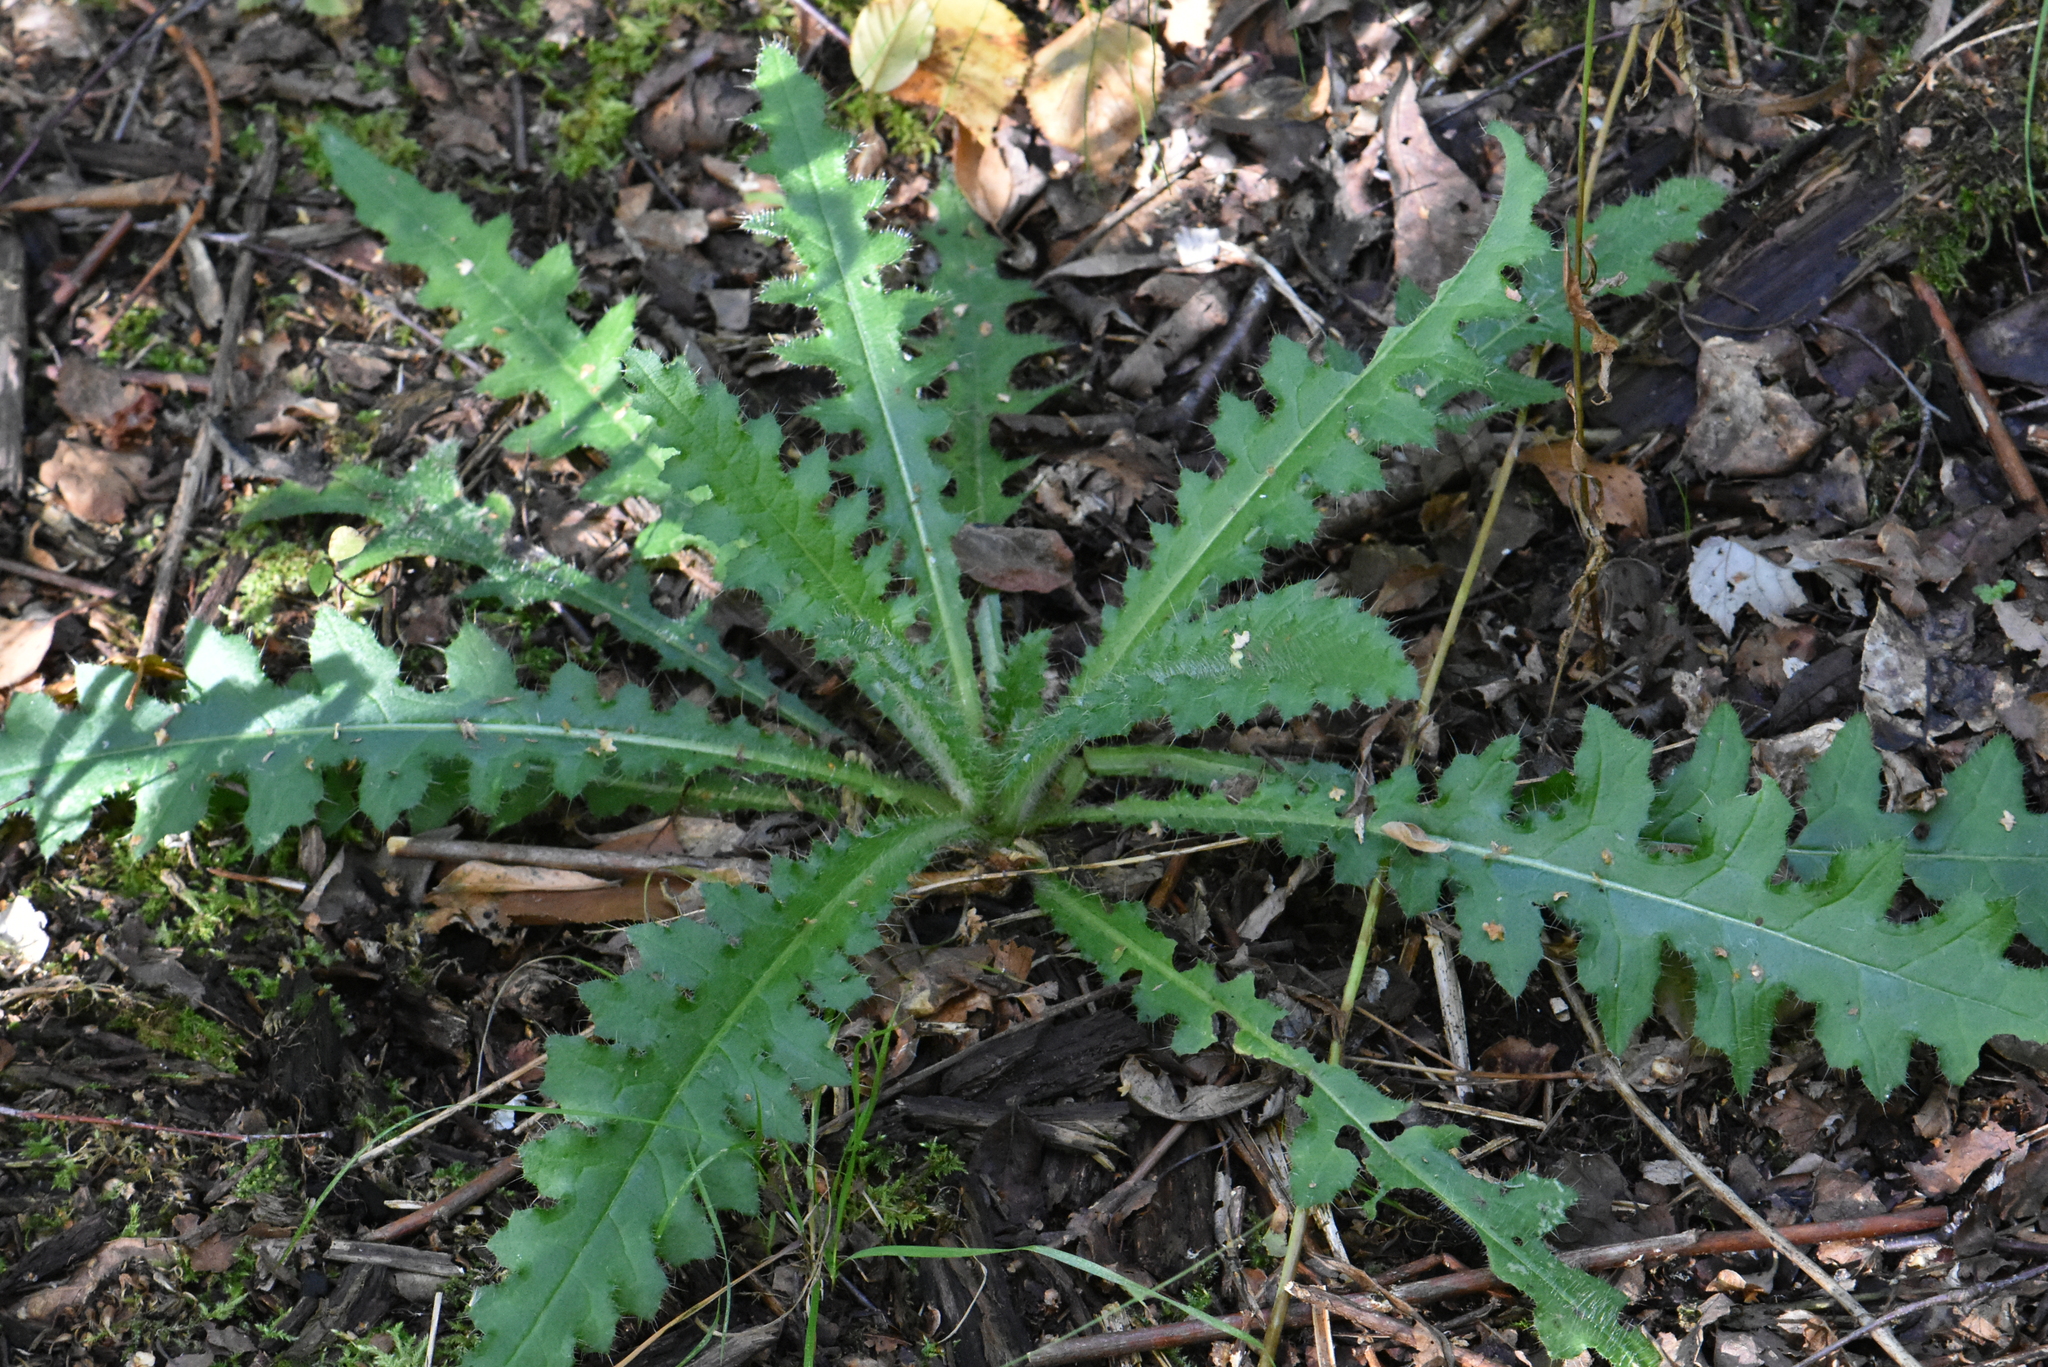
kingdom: Plantae
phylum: Tracheophyta
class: Magnoliopsida
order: Asterales
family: Asteraceae
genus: Cirsium
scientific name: Cirsium palustre
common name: Marsh thistle
